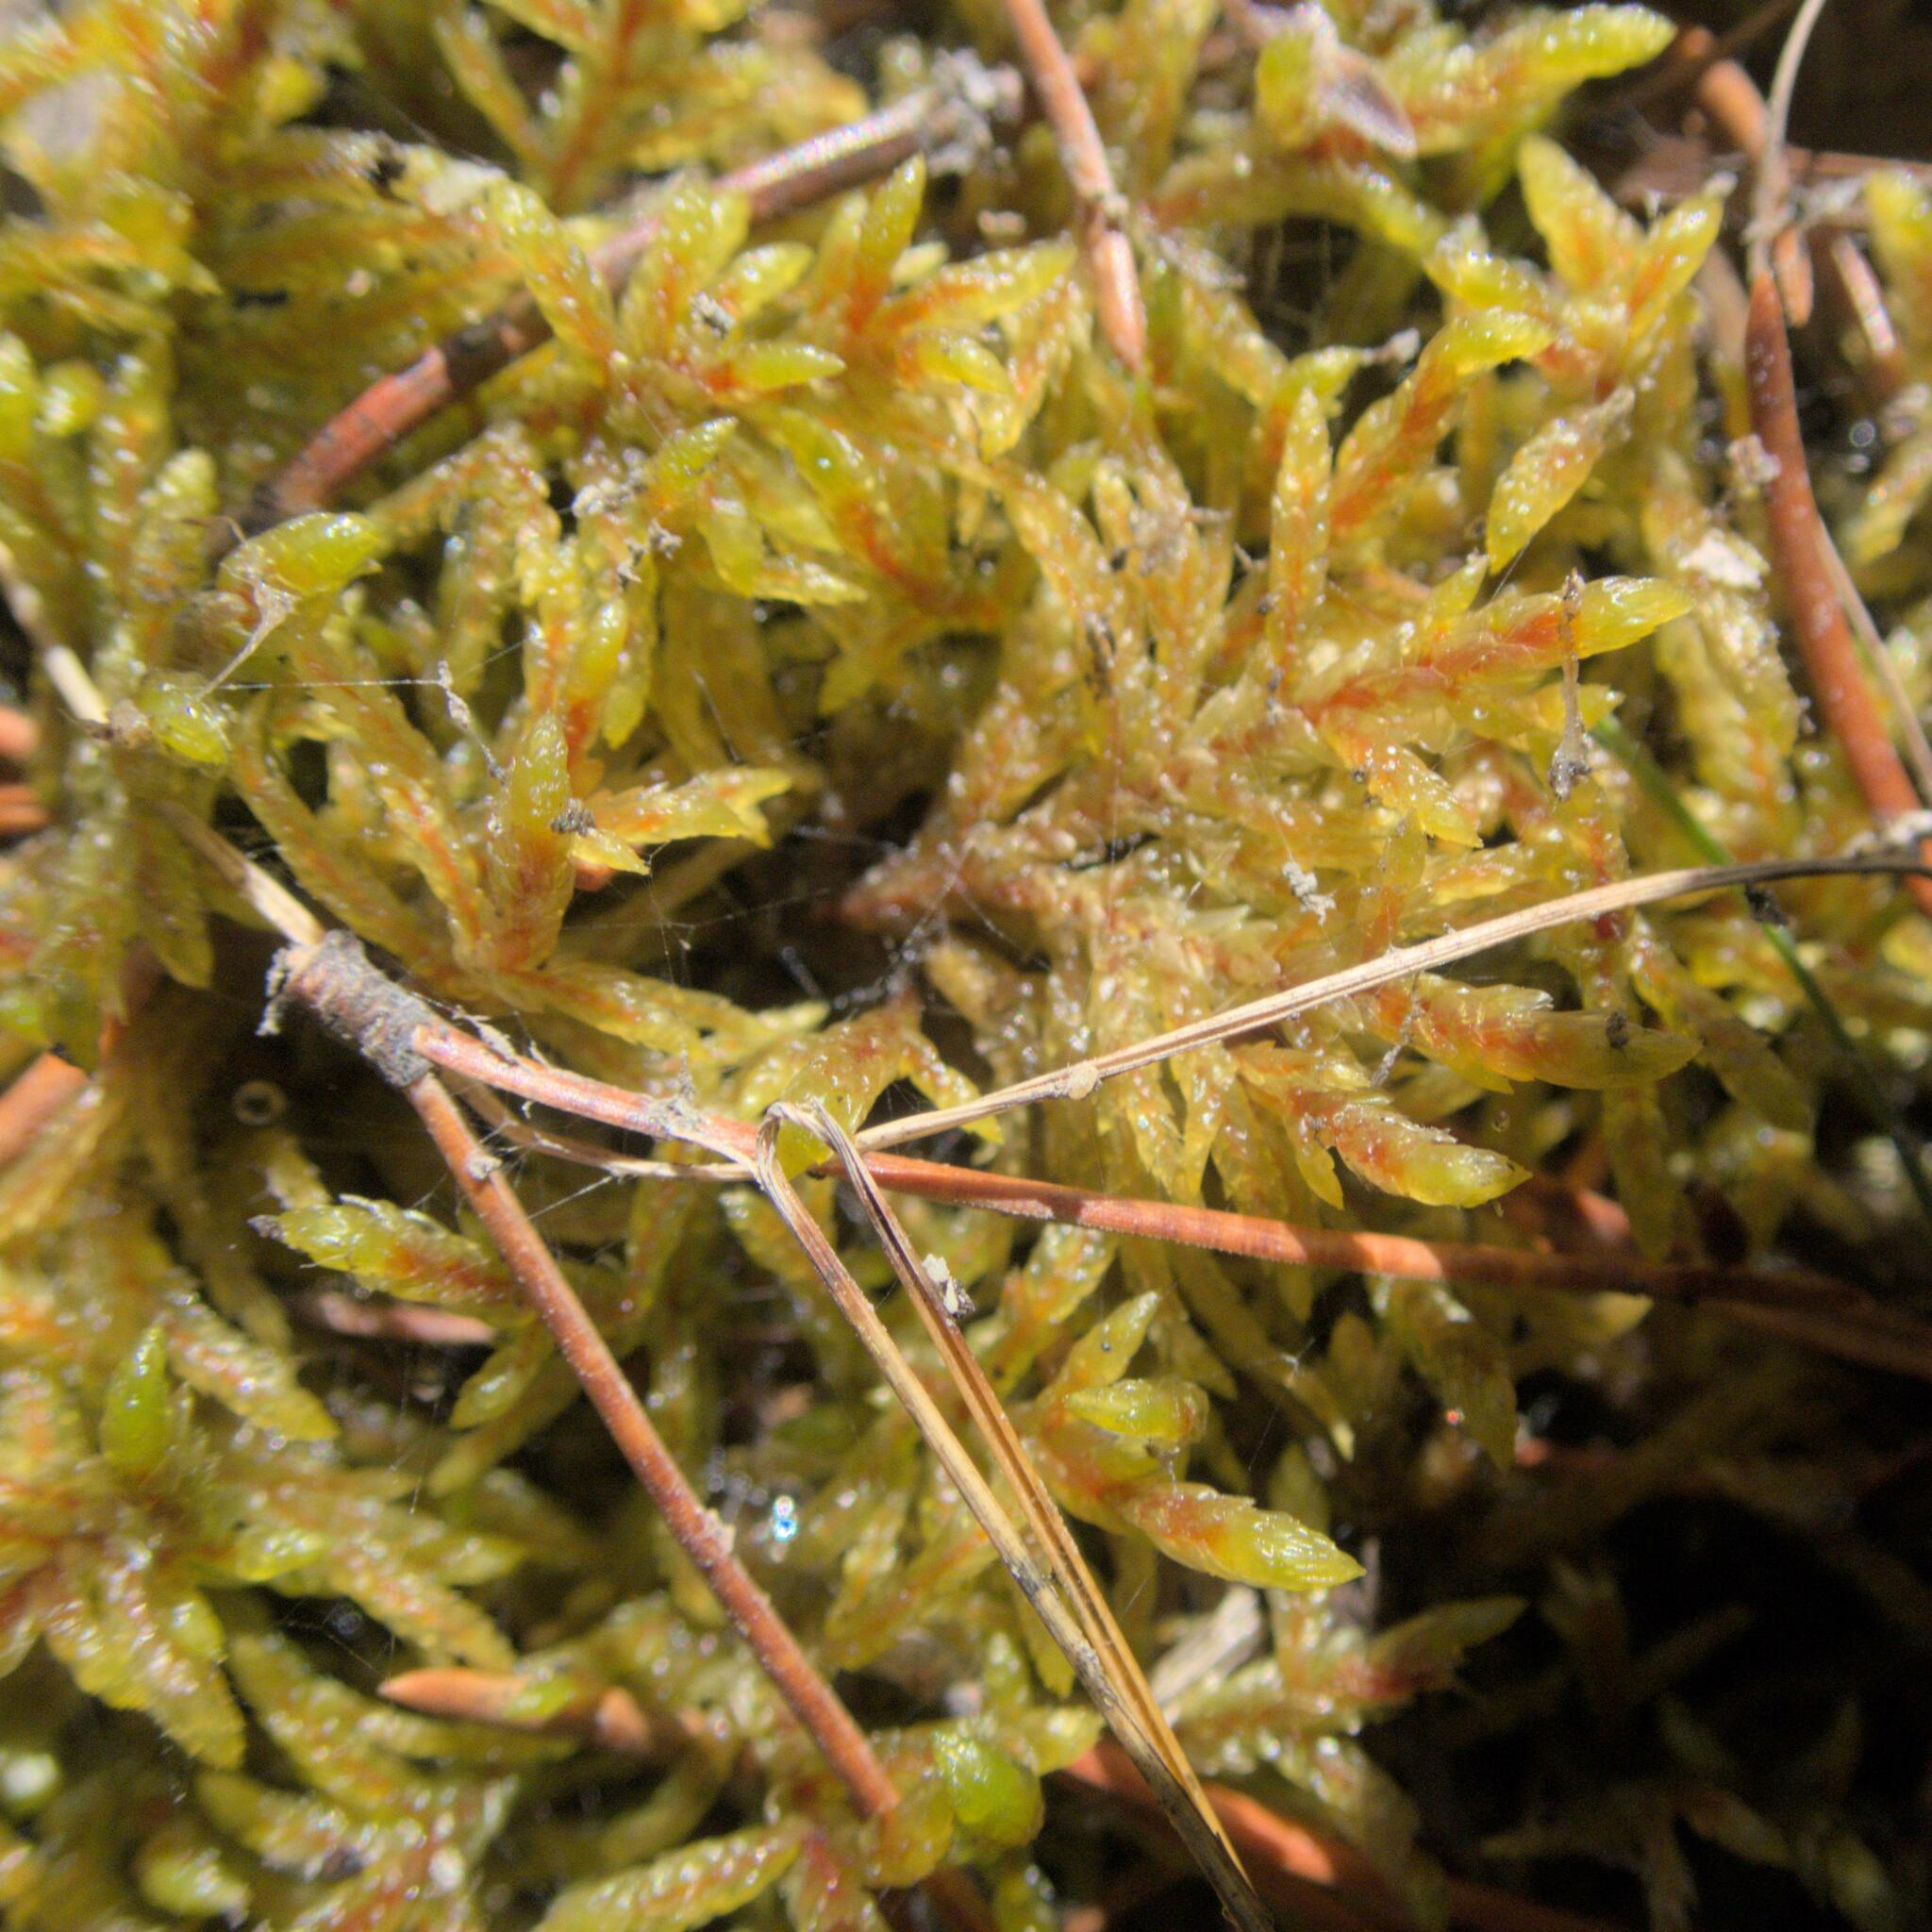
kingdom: Plantae
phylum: Bryophyta
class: Bryopsida
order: Hypnales
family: Hylocomiaceae
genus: Pleurozium
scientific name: Pleurozium schreberi
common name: Red-stemmed feather moss
